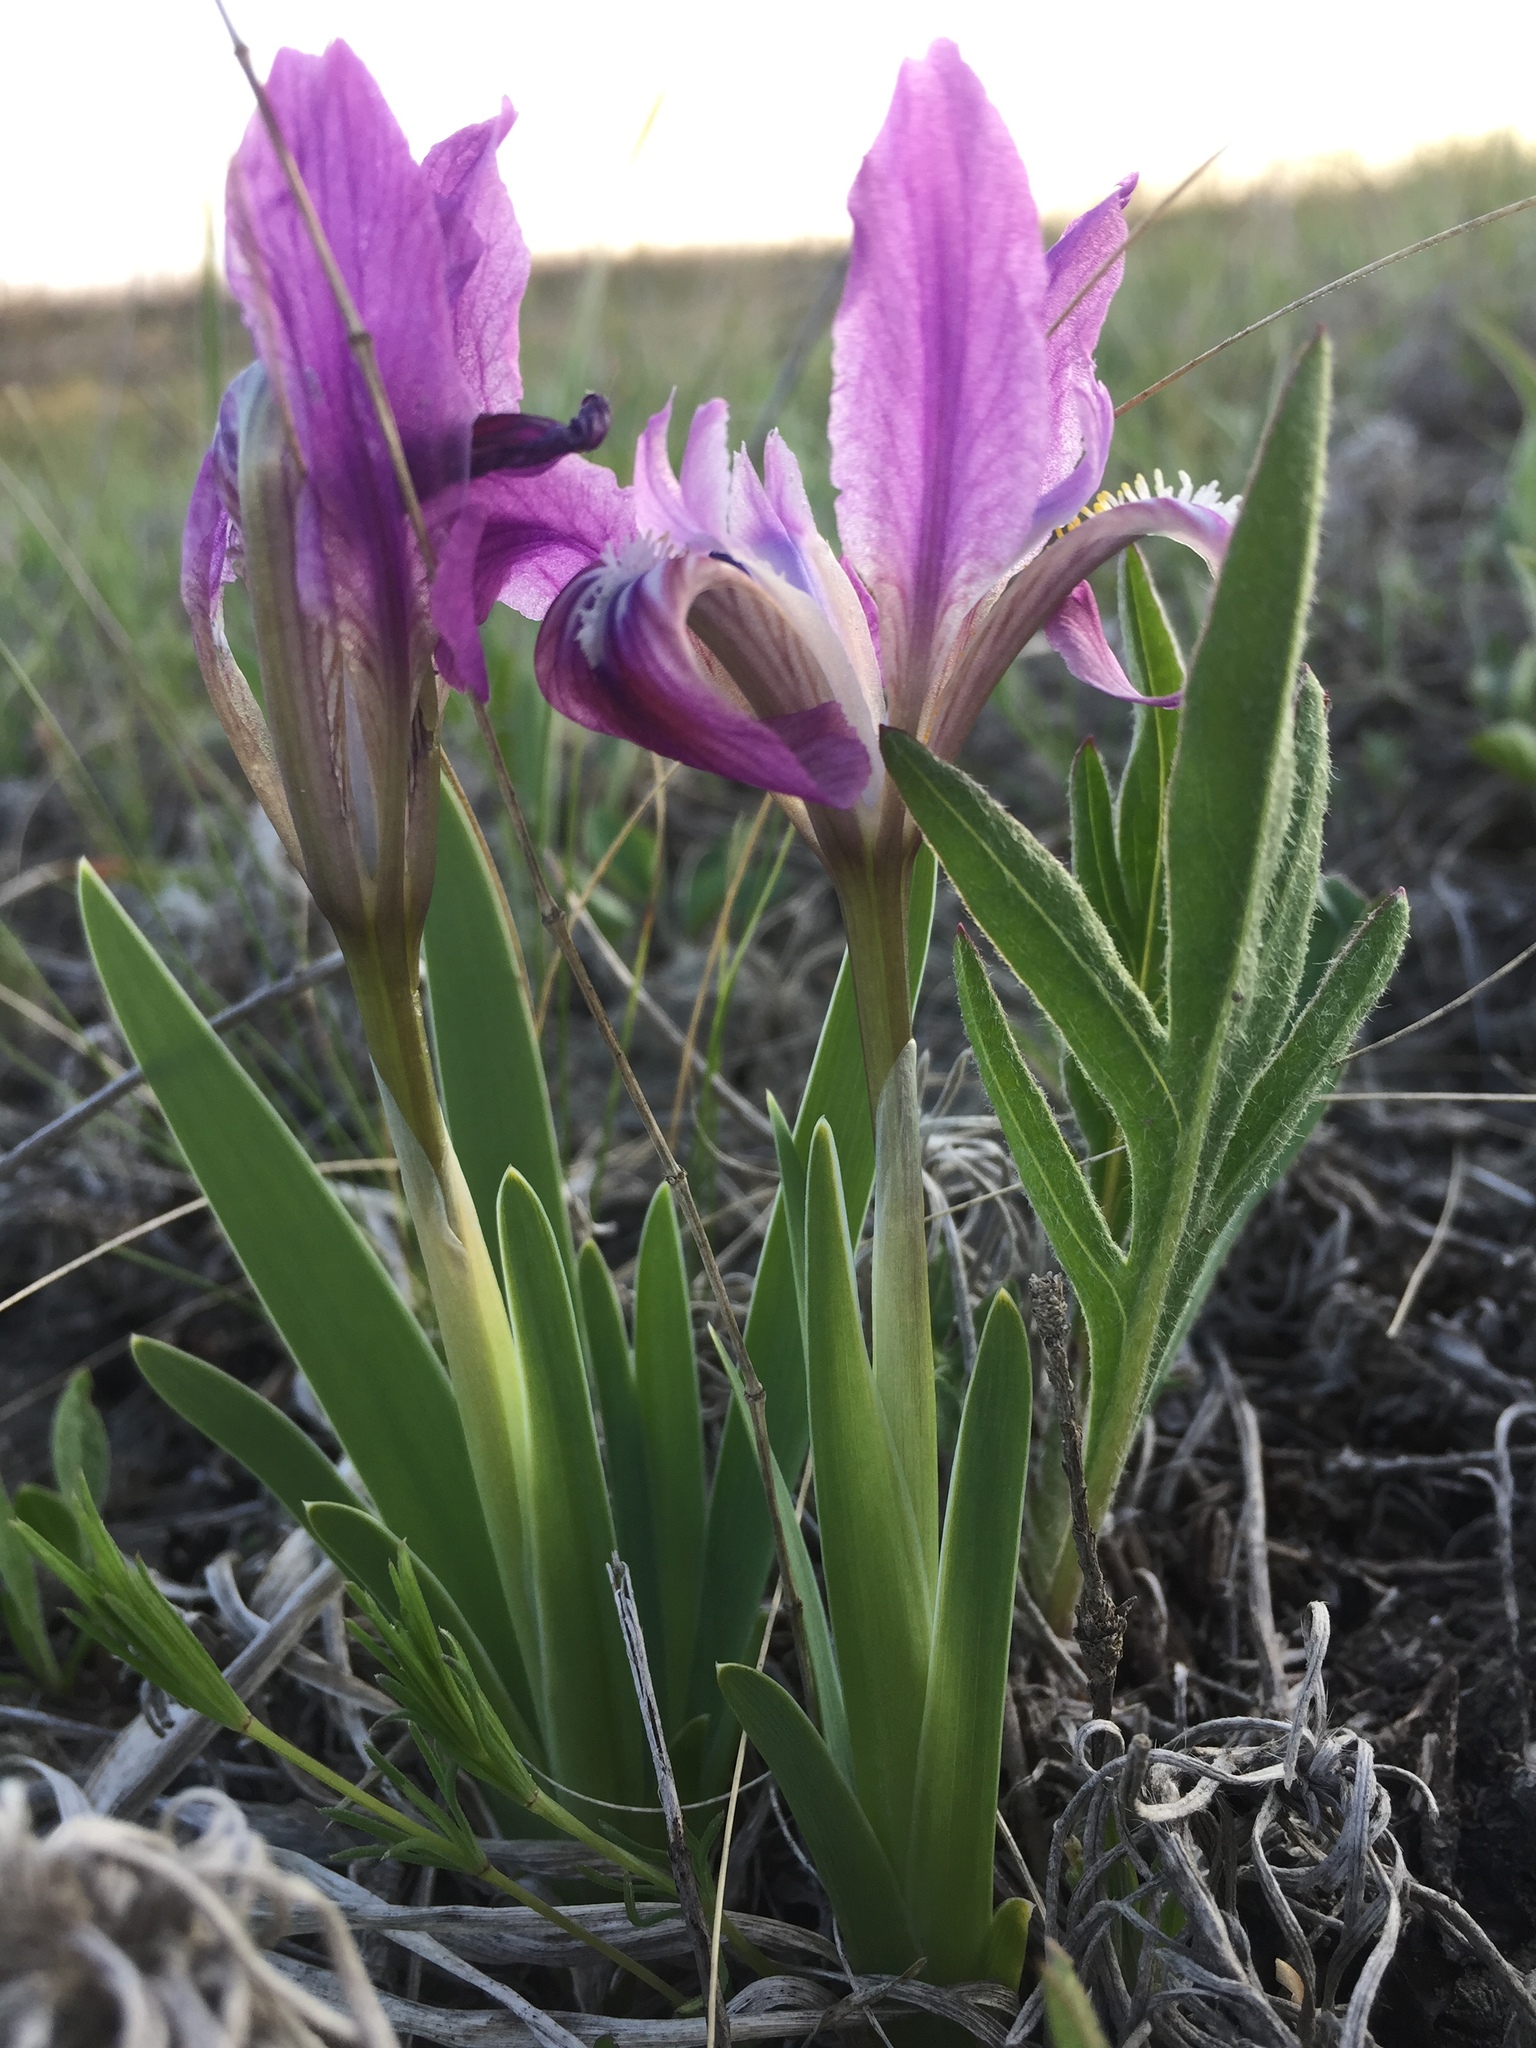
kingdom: Plantae
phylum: Tracheophyta
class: Liliopsida
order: Asparagales
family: Iridaceae
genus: Iris
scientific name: Iris pumila
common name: Dwarf iris
